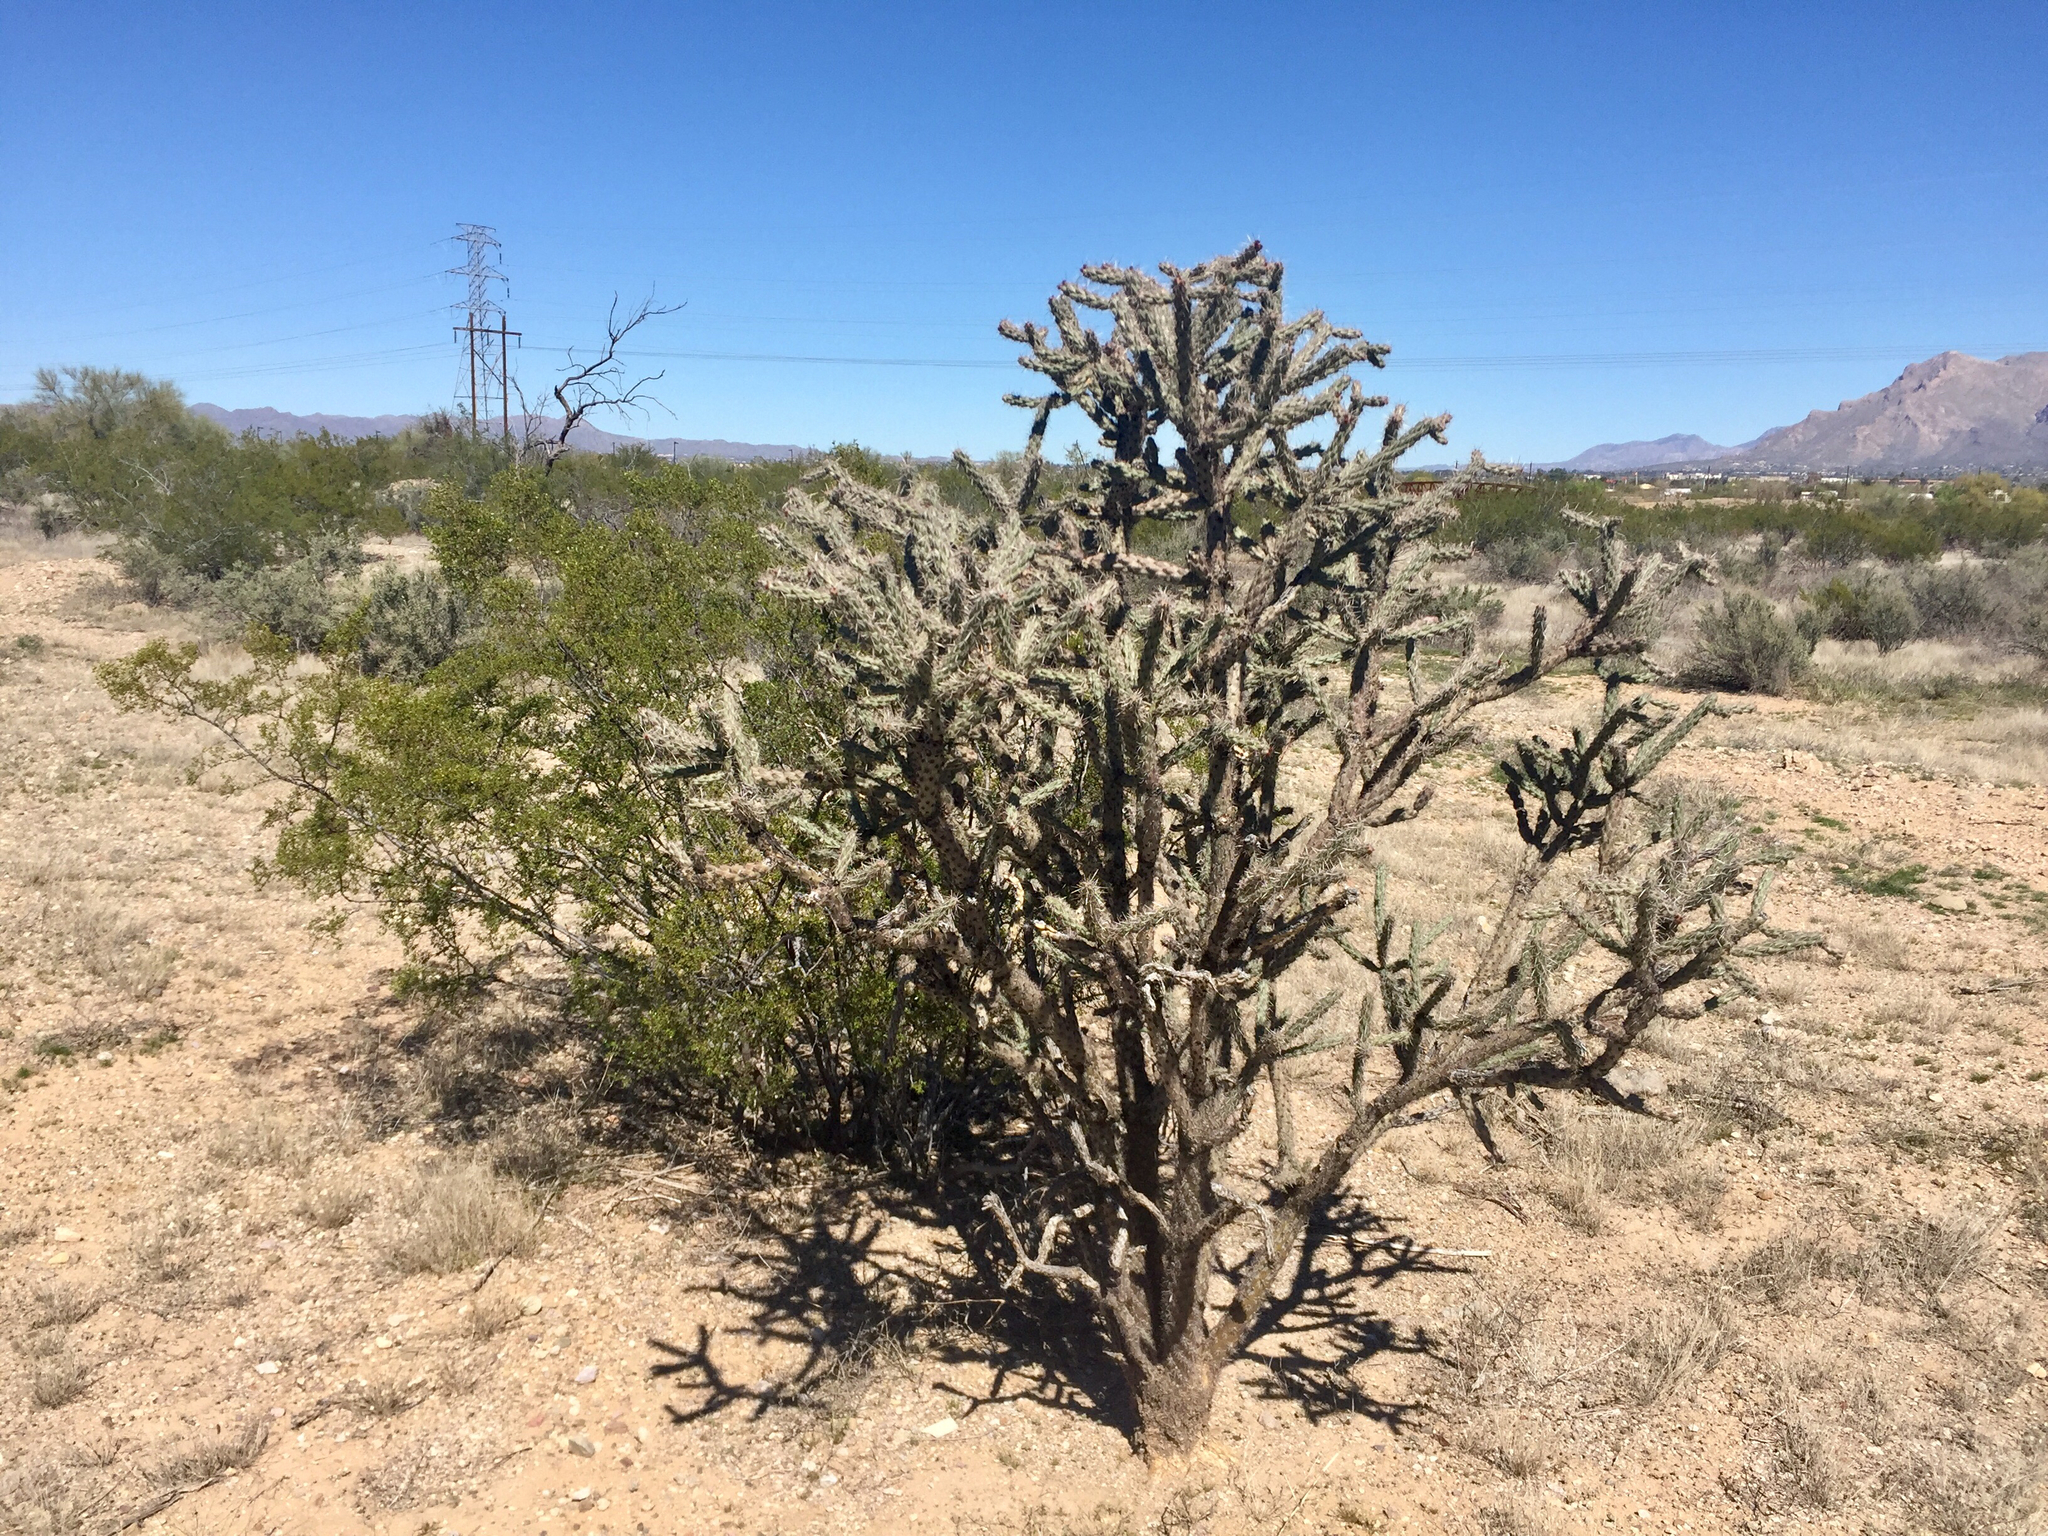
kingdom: Plantae
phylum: Tracheophyta
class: Magnoliopsida
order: Caryophyllales
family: Cactaceae
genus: Cylindropuntia
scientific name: Cylindropuntia acanthocarpa
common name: Buckhorn cholla
